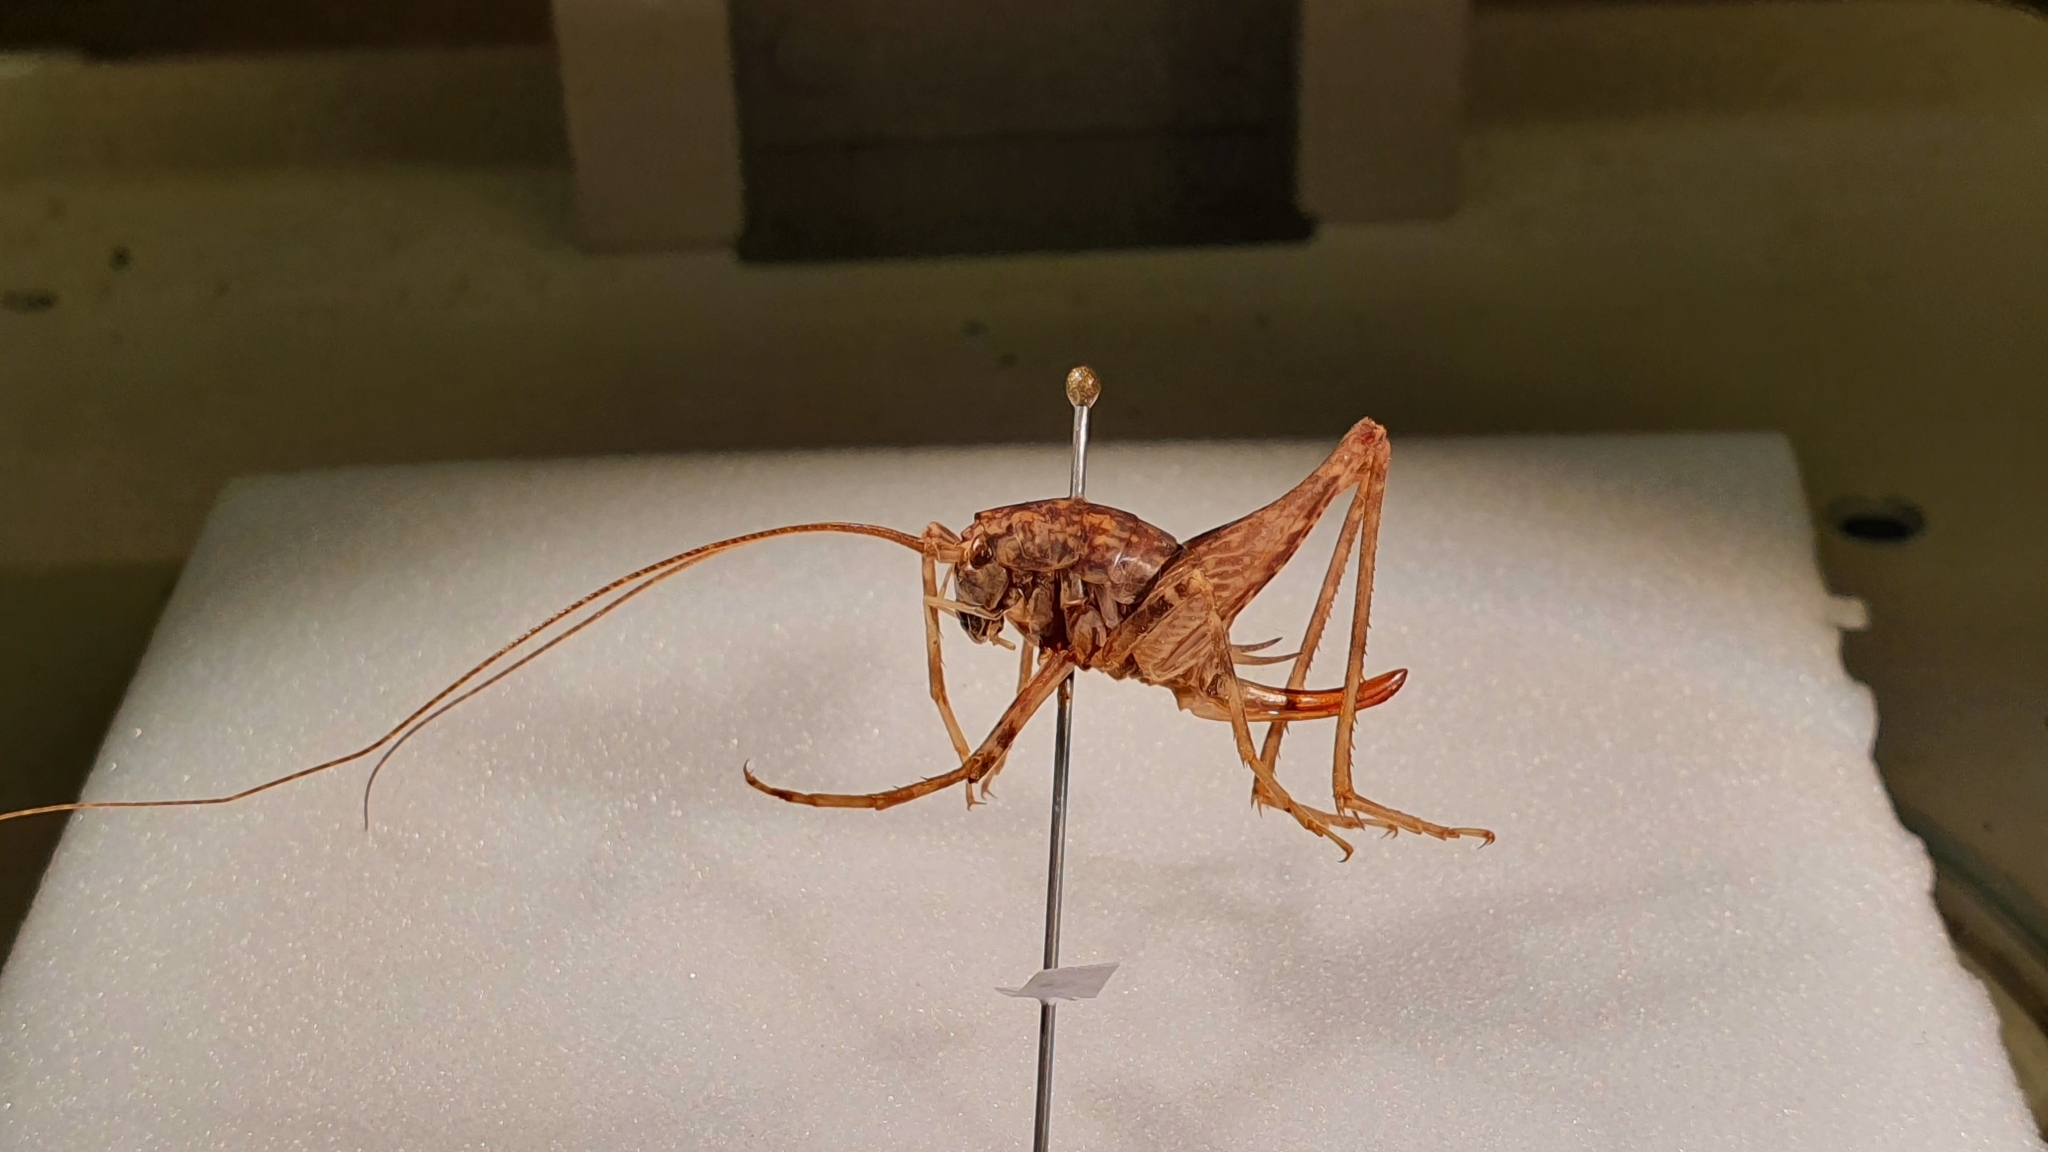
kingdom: Animalia
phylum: Arthropoda
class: Insecta
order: Orthoptera
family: Rhaphidophoridae
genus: Pleioplectron
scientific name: Pleioplectron simplex
